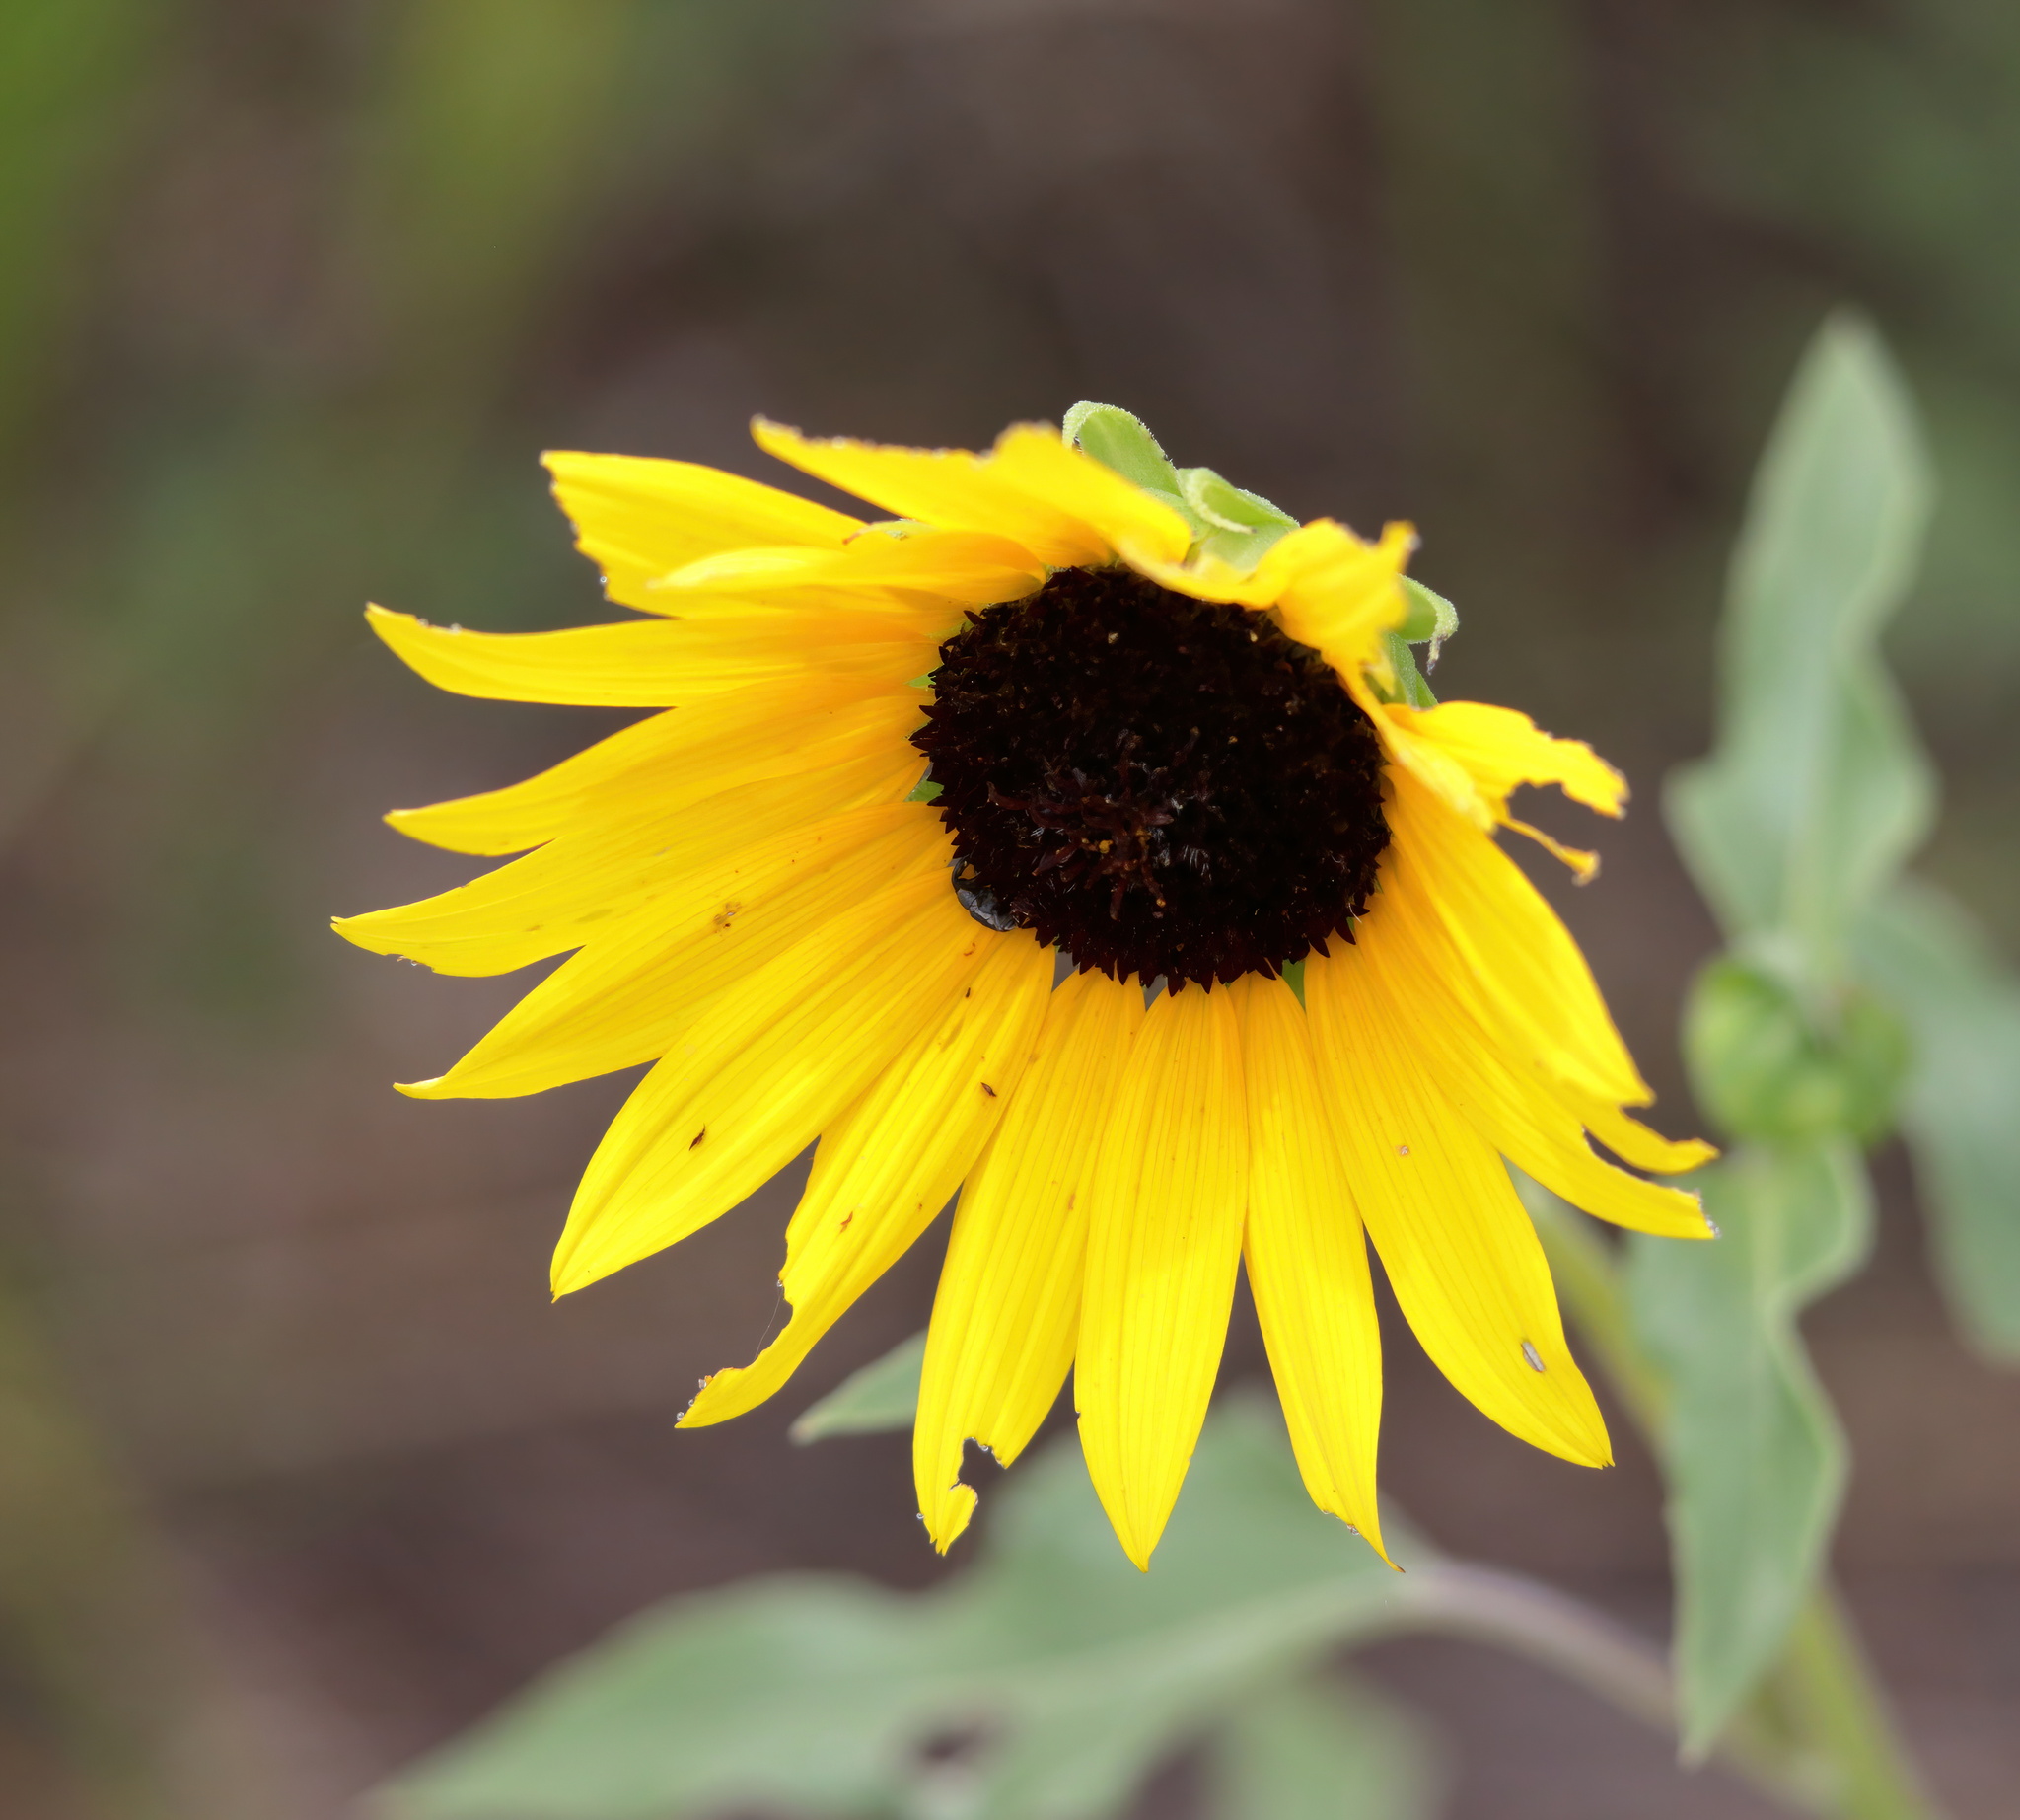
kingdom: Plantae
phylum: Tracheophyta
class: Magnoliopsida
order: Asterales
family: Asteraceae
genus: Helianthus
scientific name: Helianthus petiolaris
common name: Lesser sunflower
